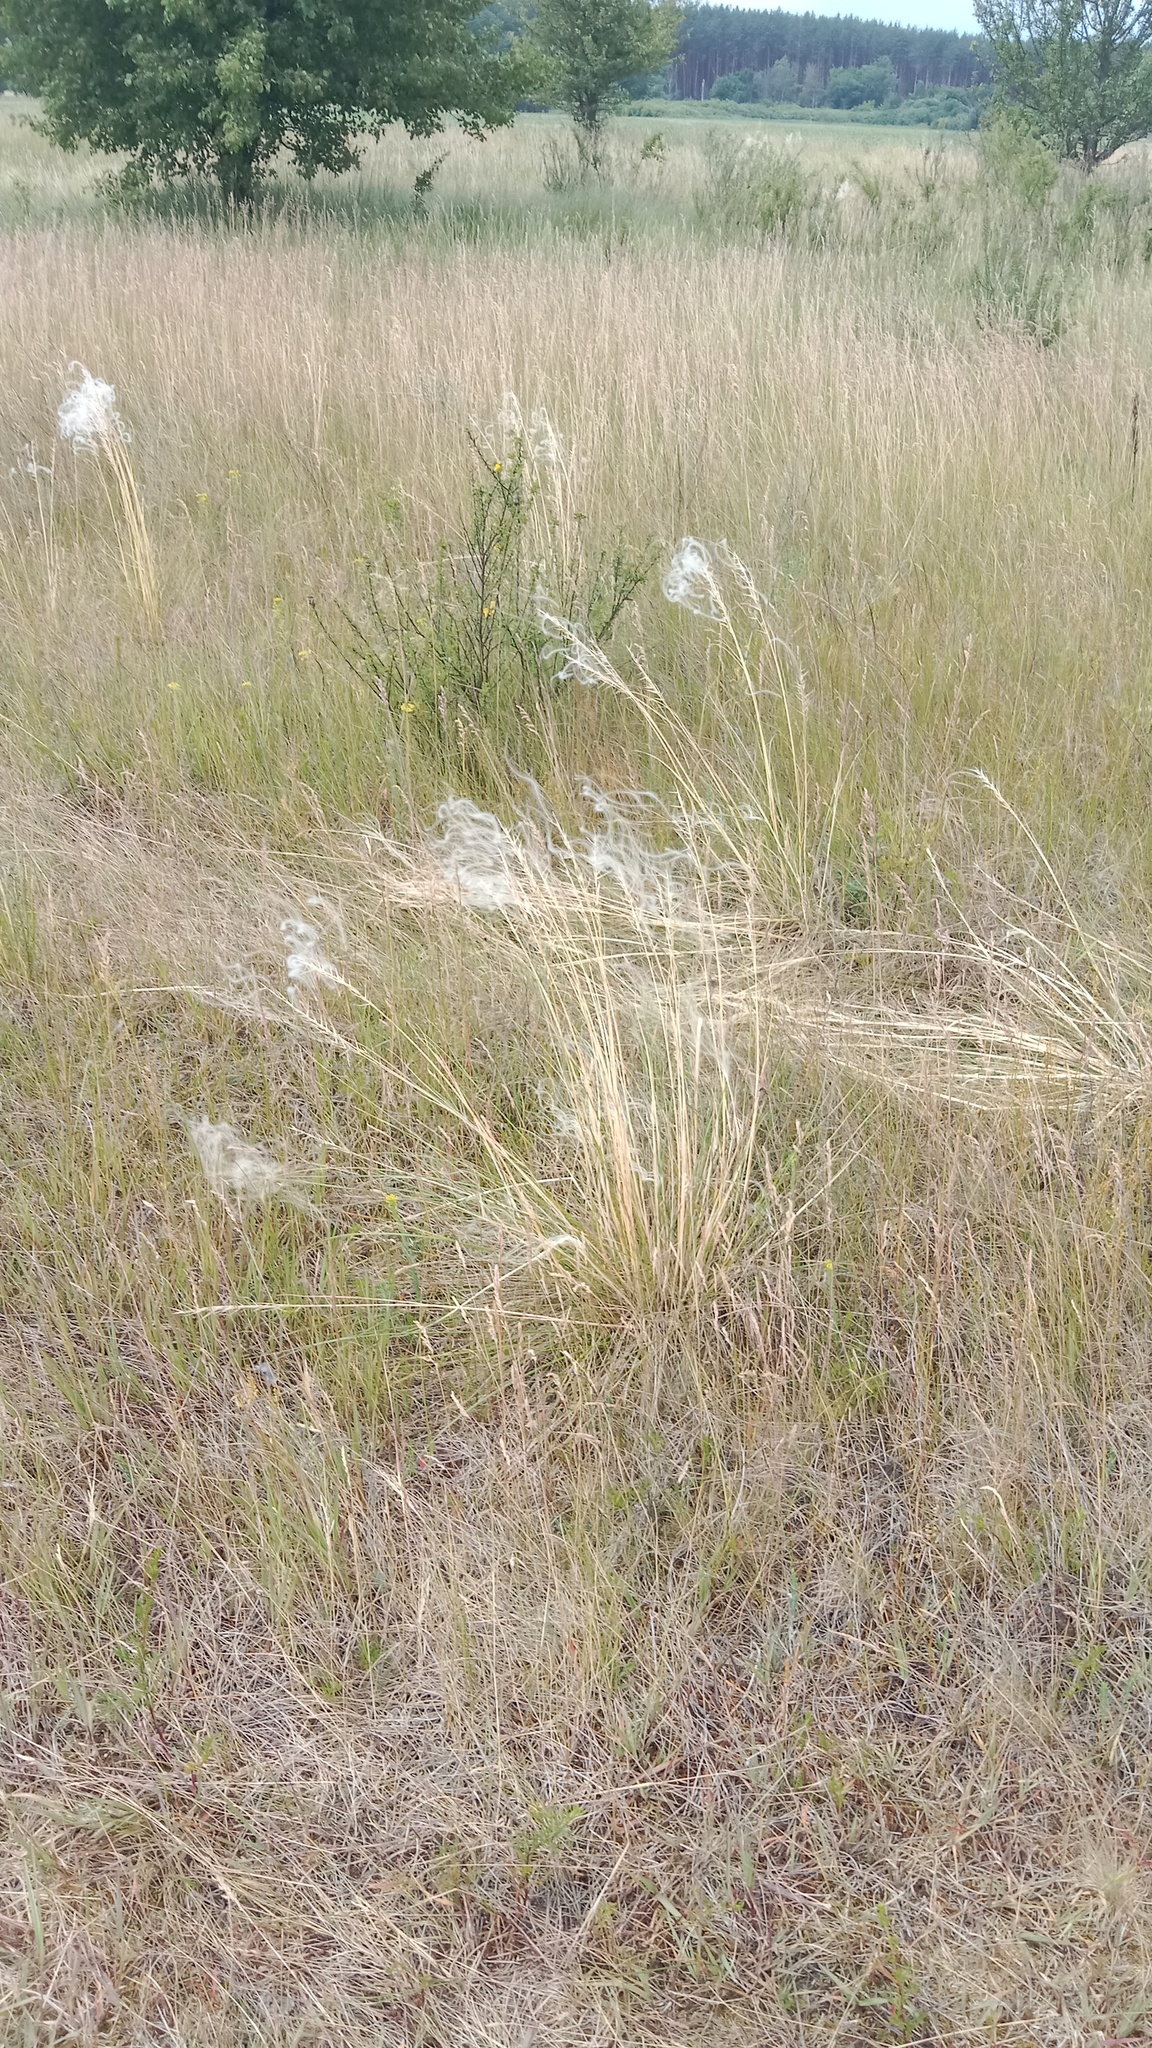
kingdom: Plantae
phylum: Tracheophyta
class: Liliopsida
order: Poales
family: Poaceae
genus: Stipa
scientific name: Stipa borysthenica
